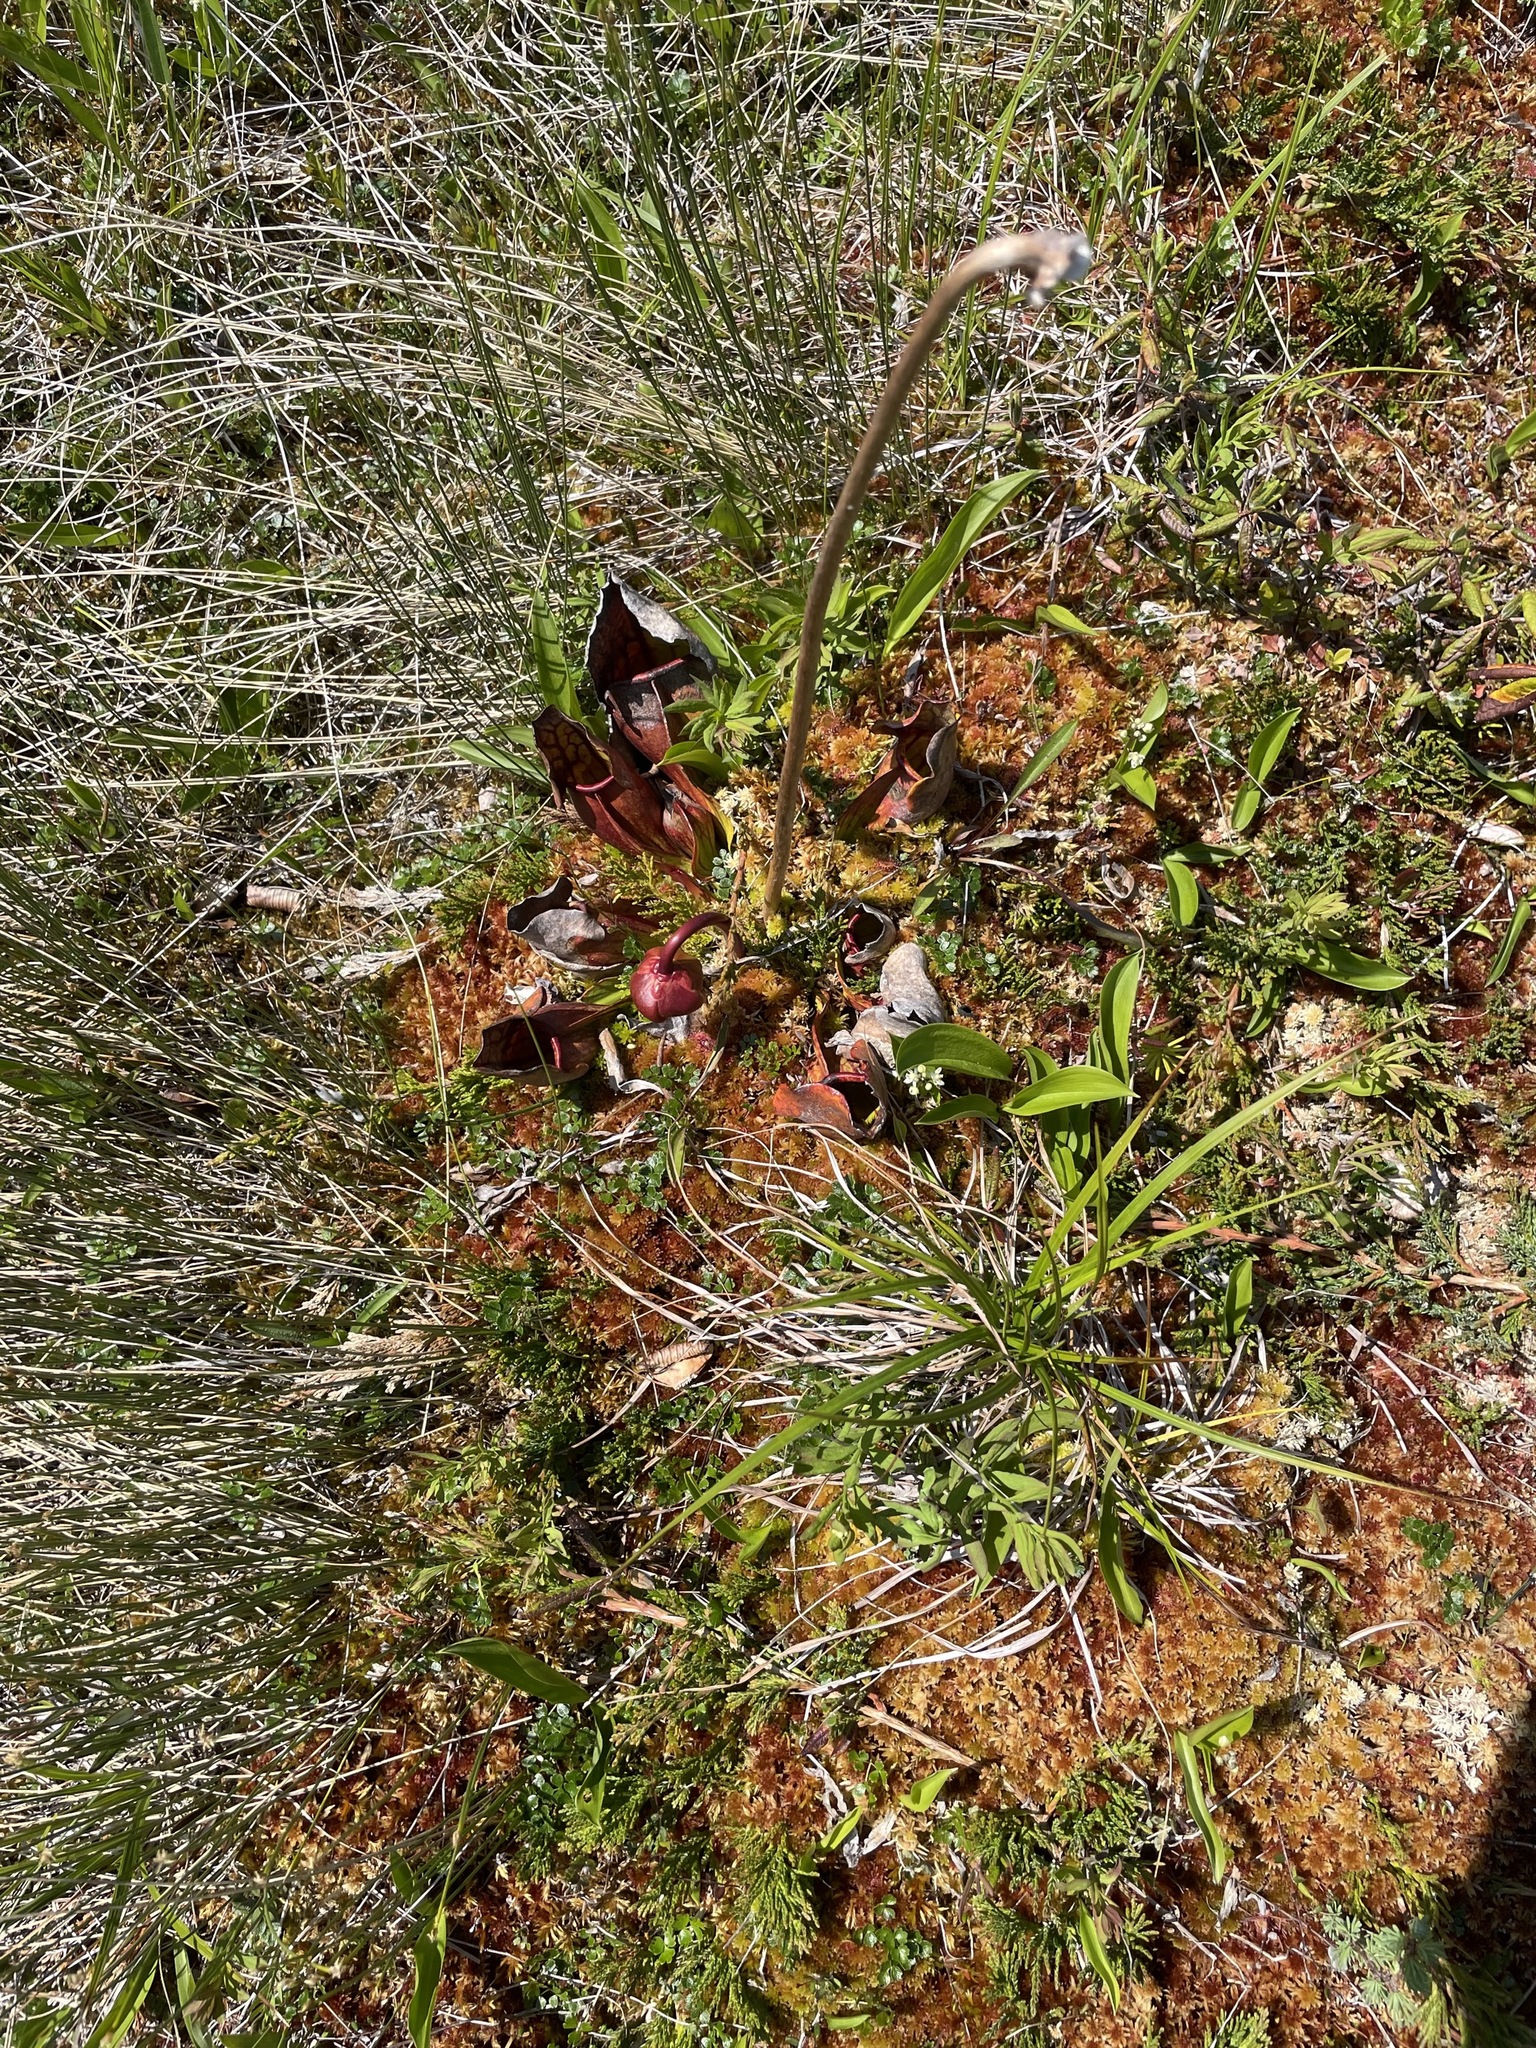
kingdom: Plantae
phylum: Tracheophyta
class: Magnoliopsida
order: Ericales
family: Sarraceniaceae
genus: Sarracenia
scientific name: Sarracenia purpurea
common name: Pitcherplant
